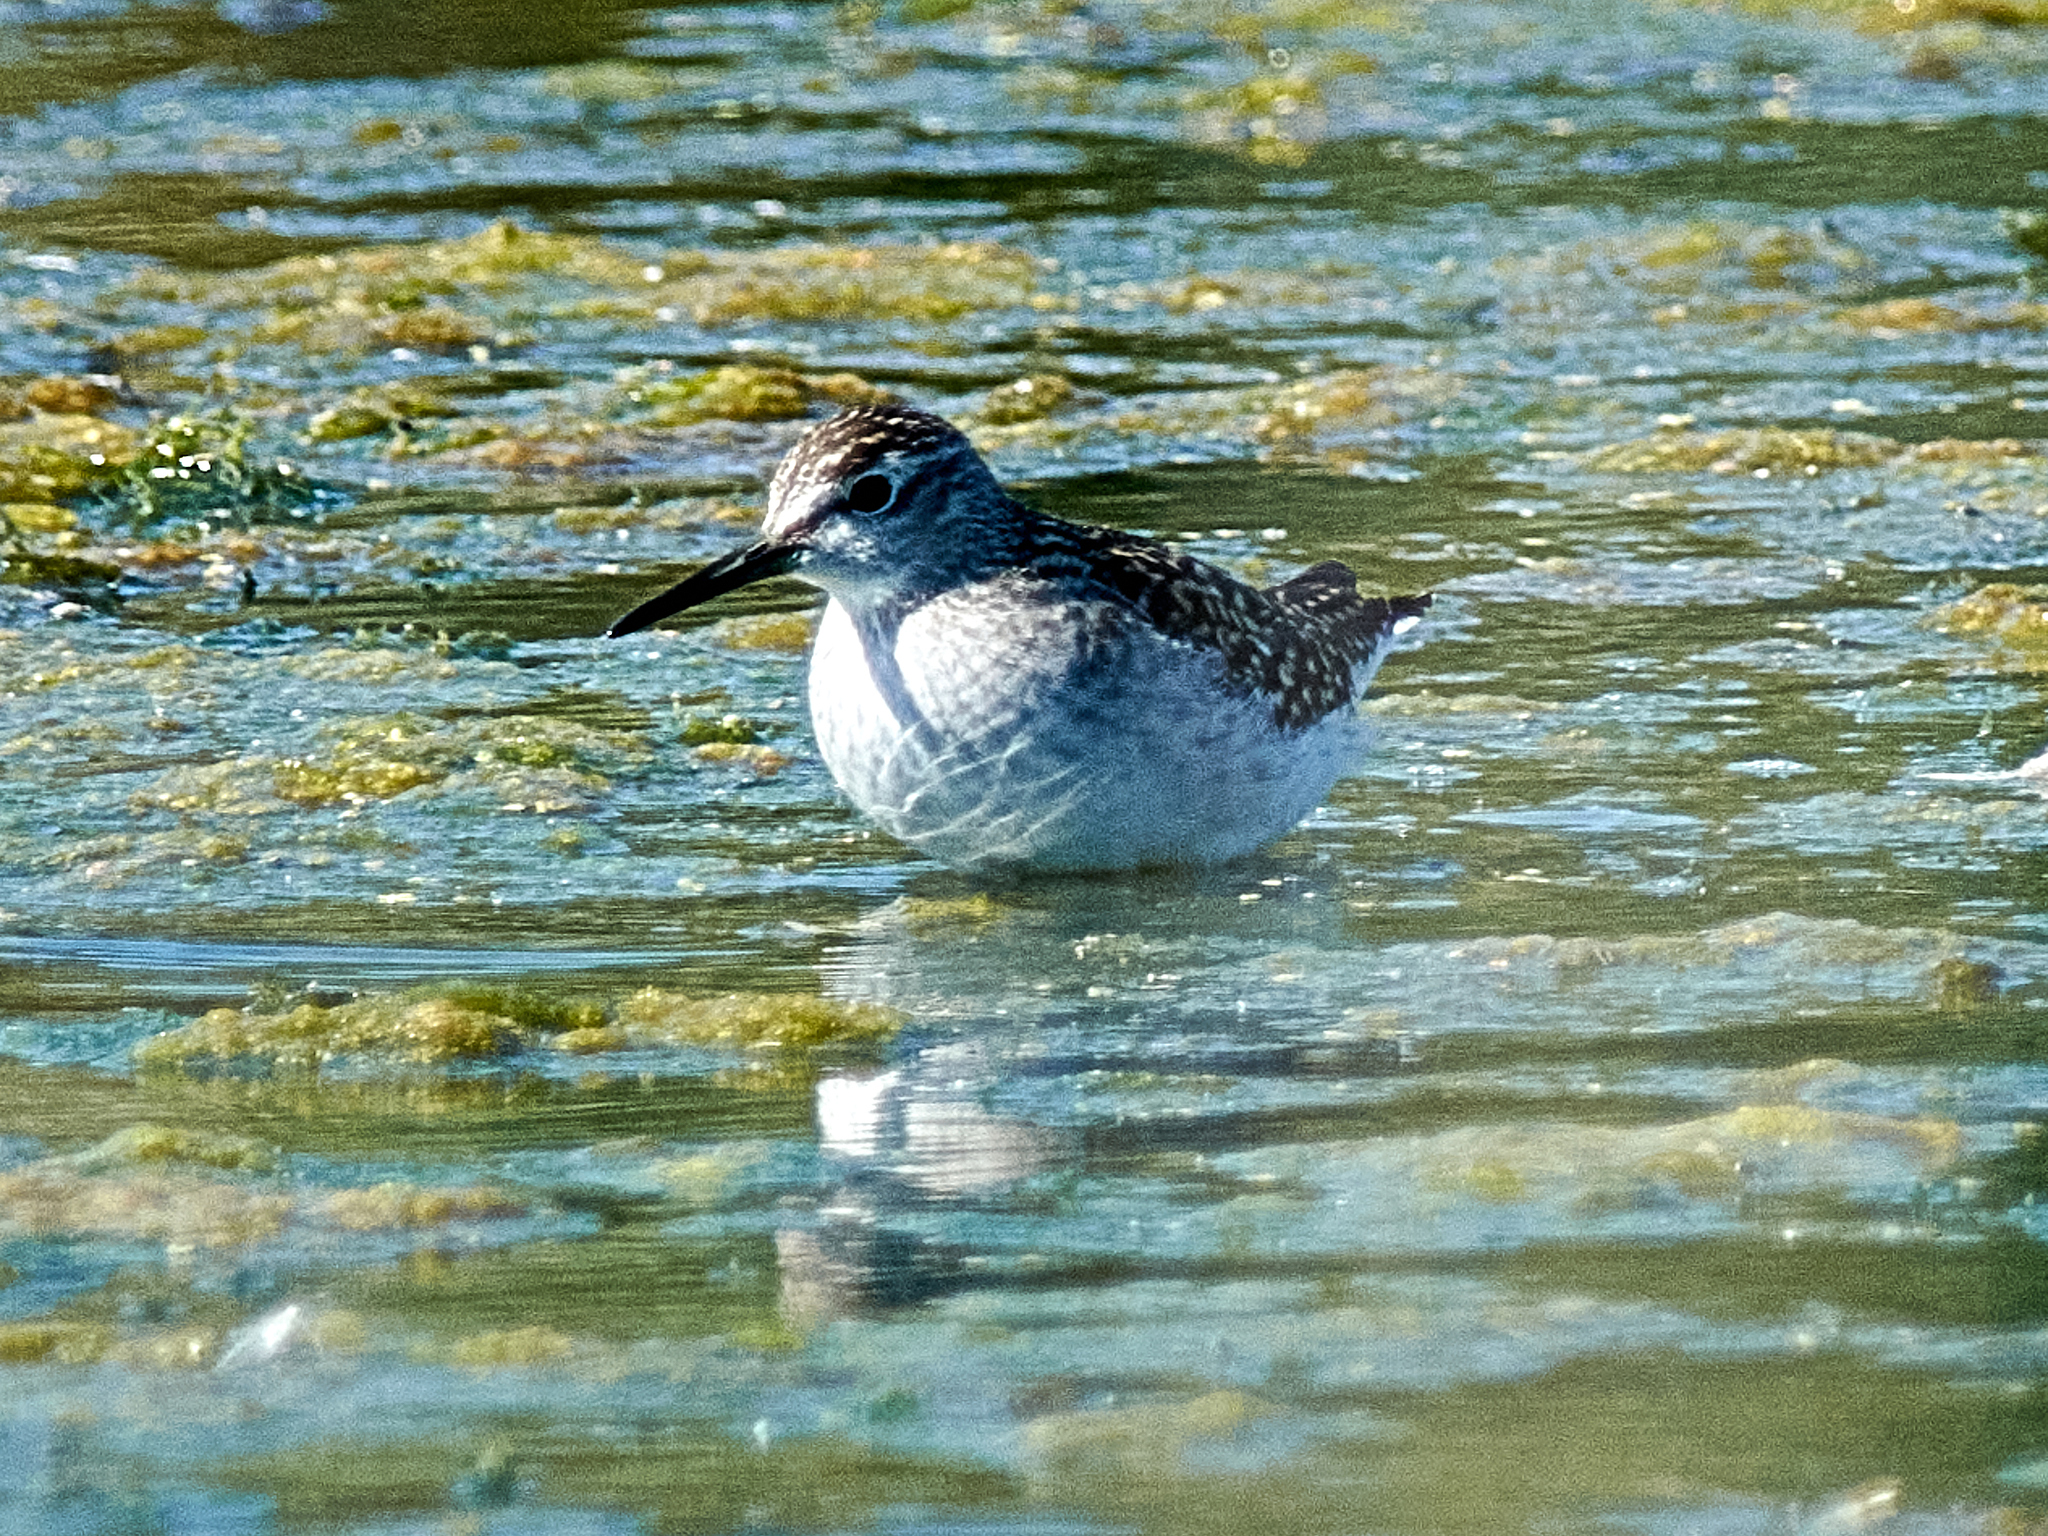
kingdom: Animalia
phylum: Chordata
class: Aves
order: Charadriiformes
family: Scolopacidae
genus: Tringa
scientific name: Tringa glareola
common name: Wood sandpiper
